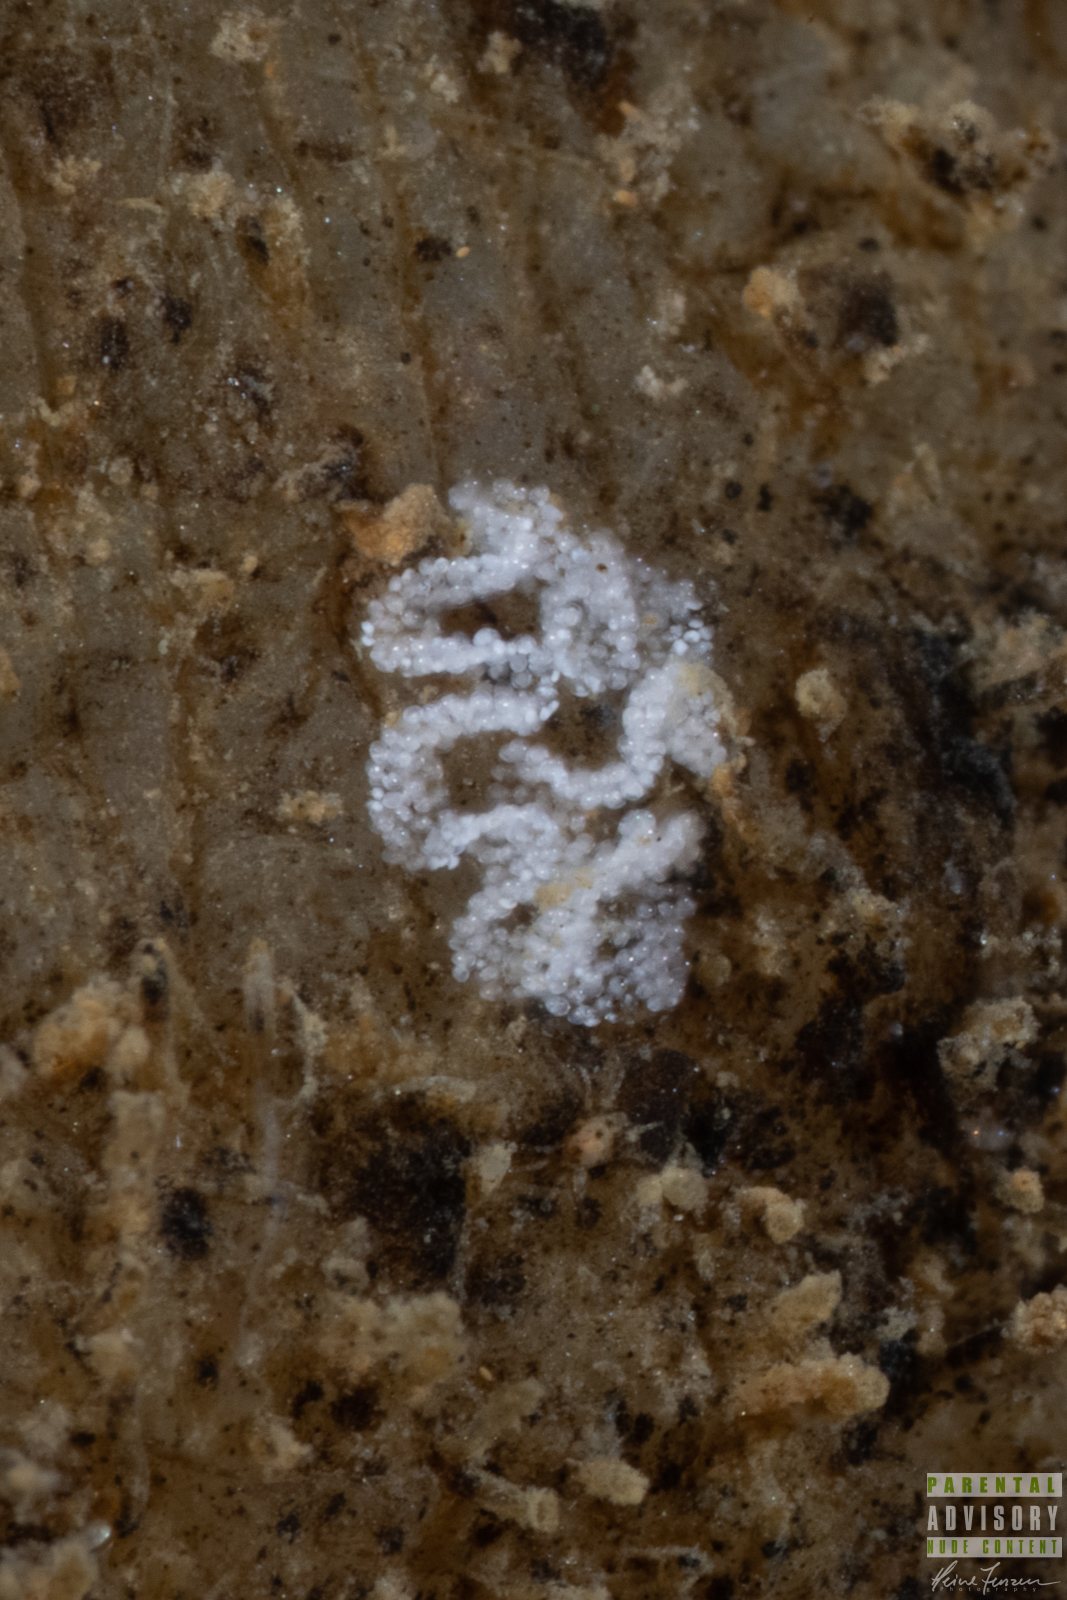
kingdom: Animalia
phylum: Mollusca
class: Gastropoda
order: Nudibranchia
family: Dotidae
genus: Doto
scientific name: Doto coronata
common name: Coronate doto
